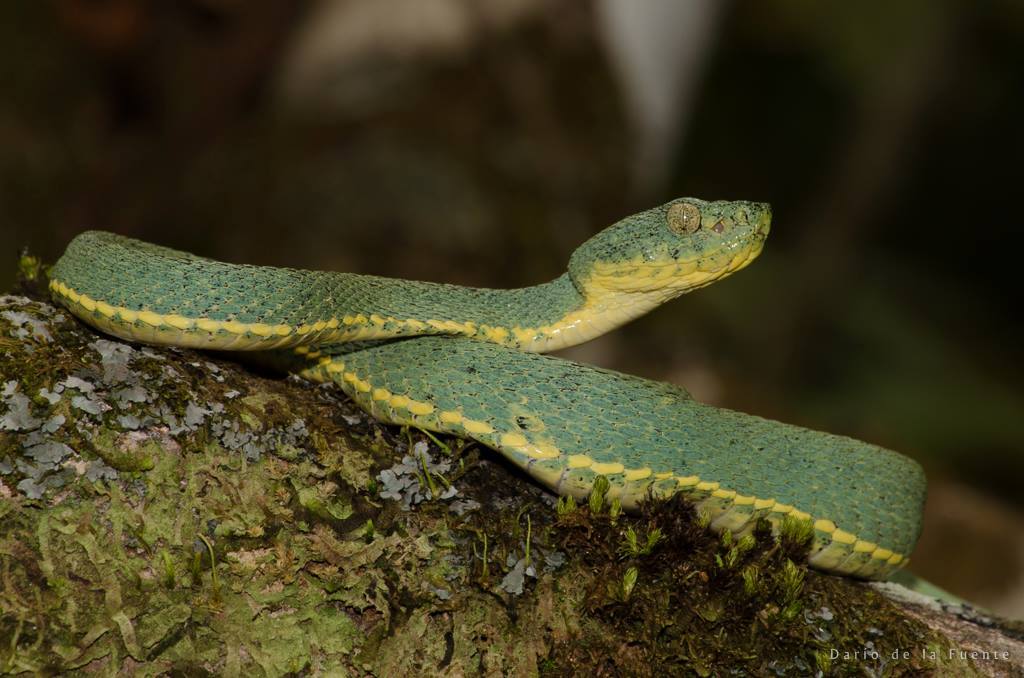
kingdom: Animalia
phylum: Chordata
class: Squamata
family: Viperidae
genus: Bothrops
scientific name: Bothrops bilineatus
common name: Green jararaca
